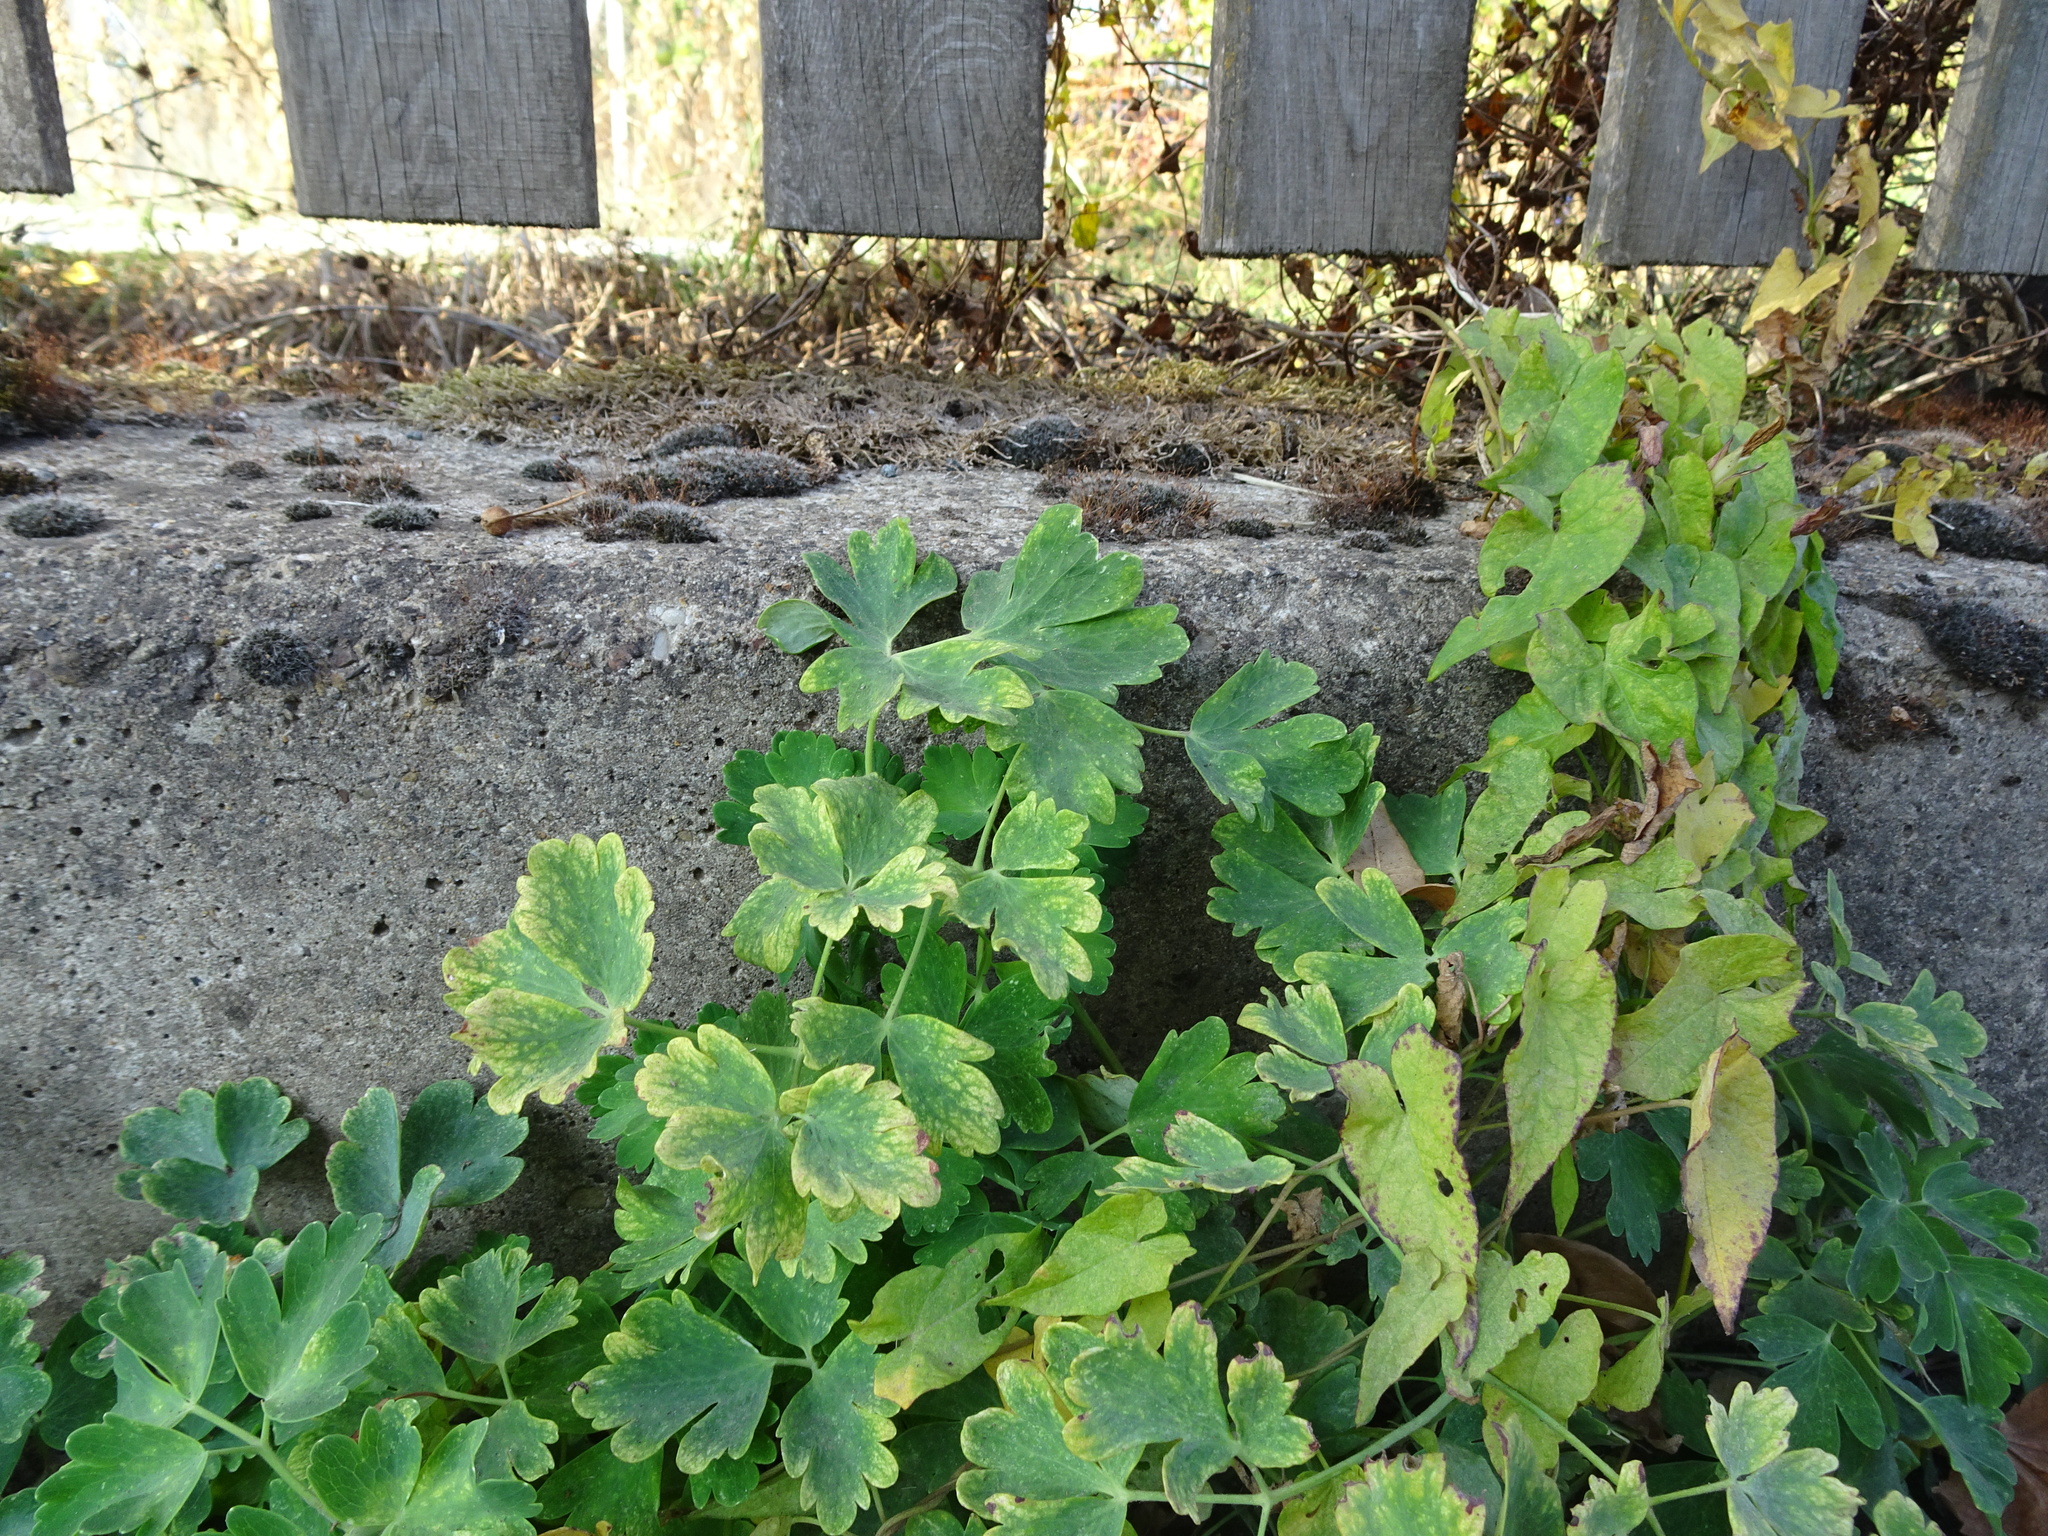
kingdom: Plantae
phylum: Tracheophyta
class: Magnoliopsida
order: Solanales
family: Convolvulaceae
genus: Calystegia
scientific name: Calystegia sepium
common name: Hedge bindweed
